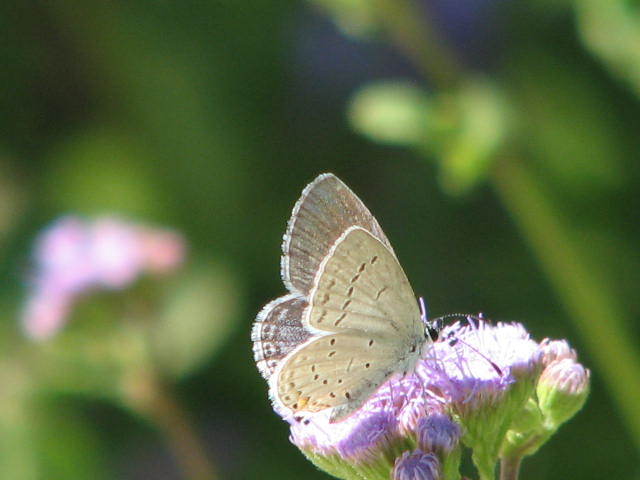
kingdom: Animalia
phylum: Arthropoda
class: Insecta
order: Lepidoptera
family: Lycaenidae
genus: Elkalyce
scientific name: Elkalyce comyntas
